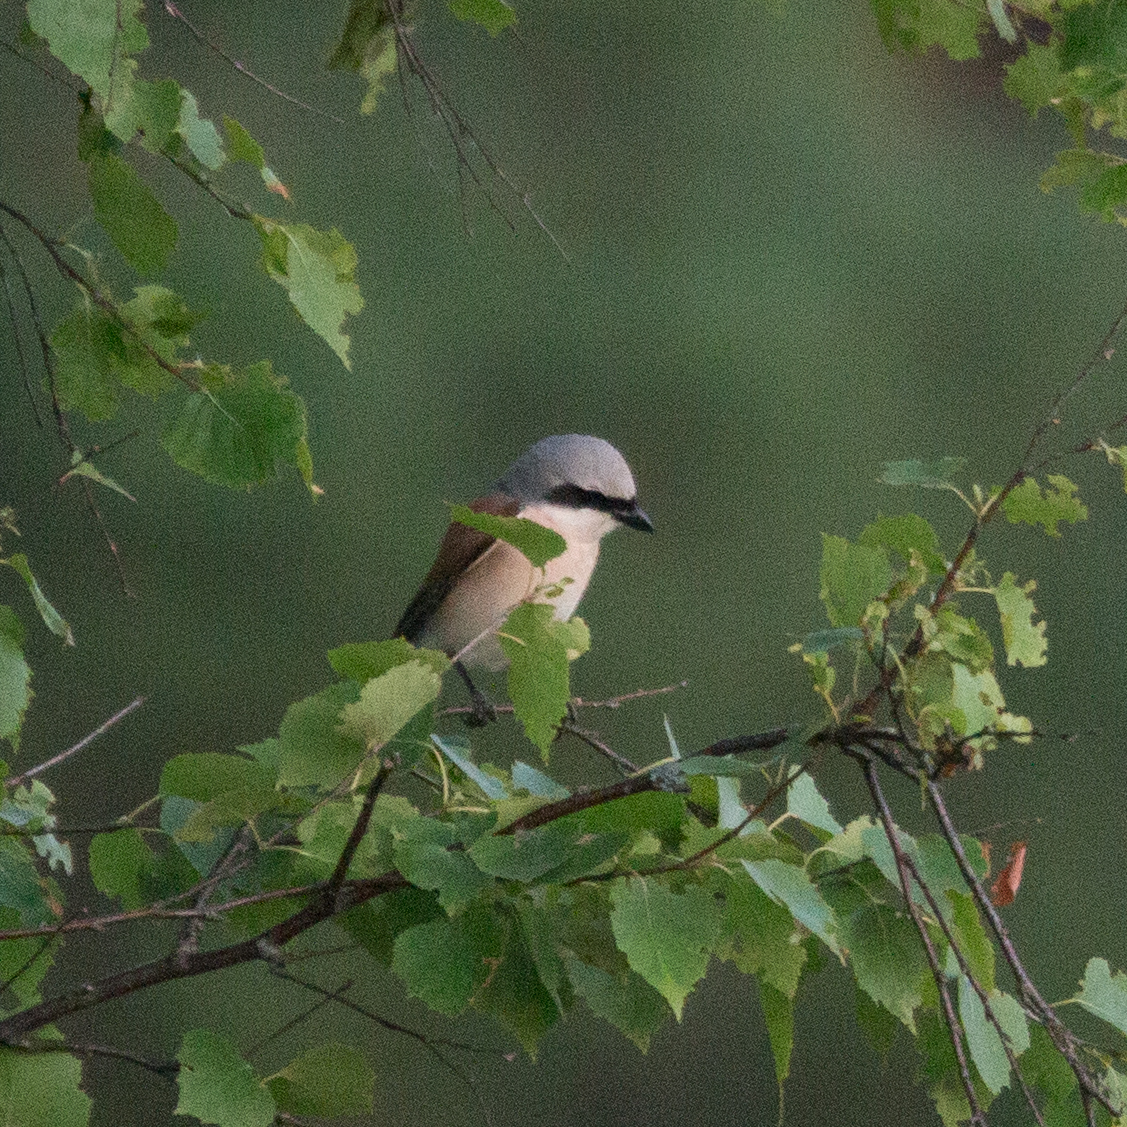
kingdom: Animalia
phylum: Chordata
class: Aves
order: Passeriformes
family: Laniidae
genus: Lanius
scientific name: Lanius collurio
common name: Red-backed shrike
